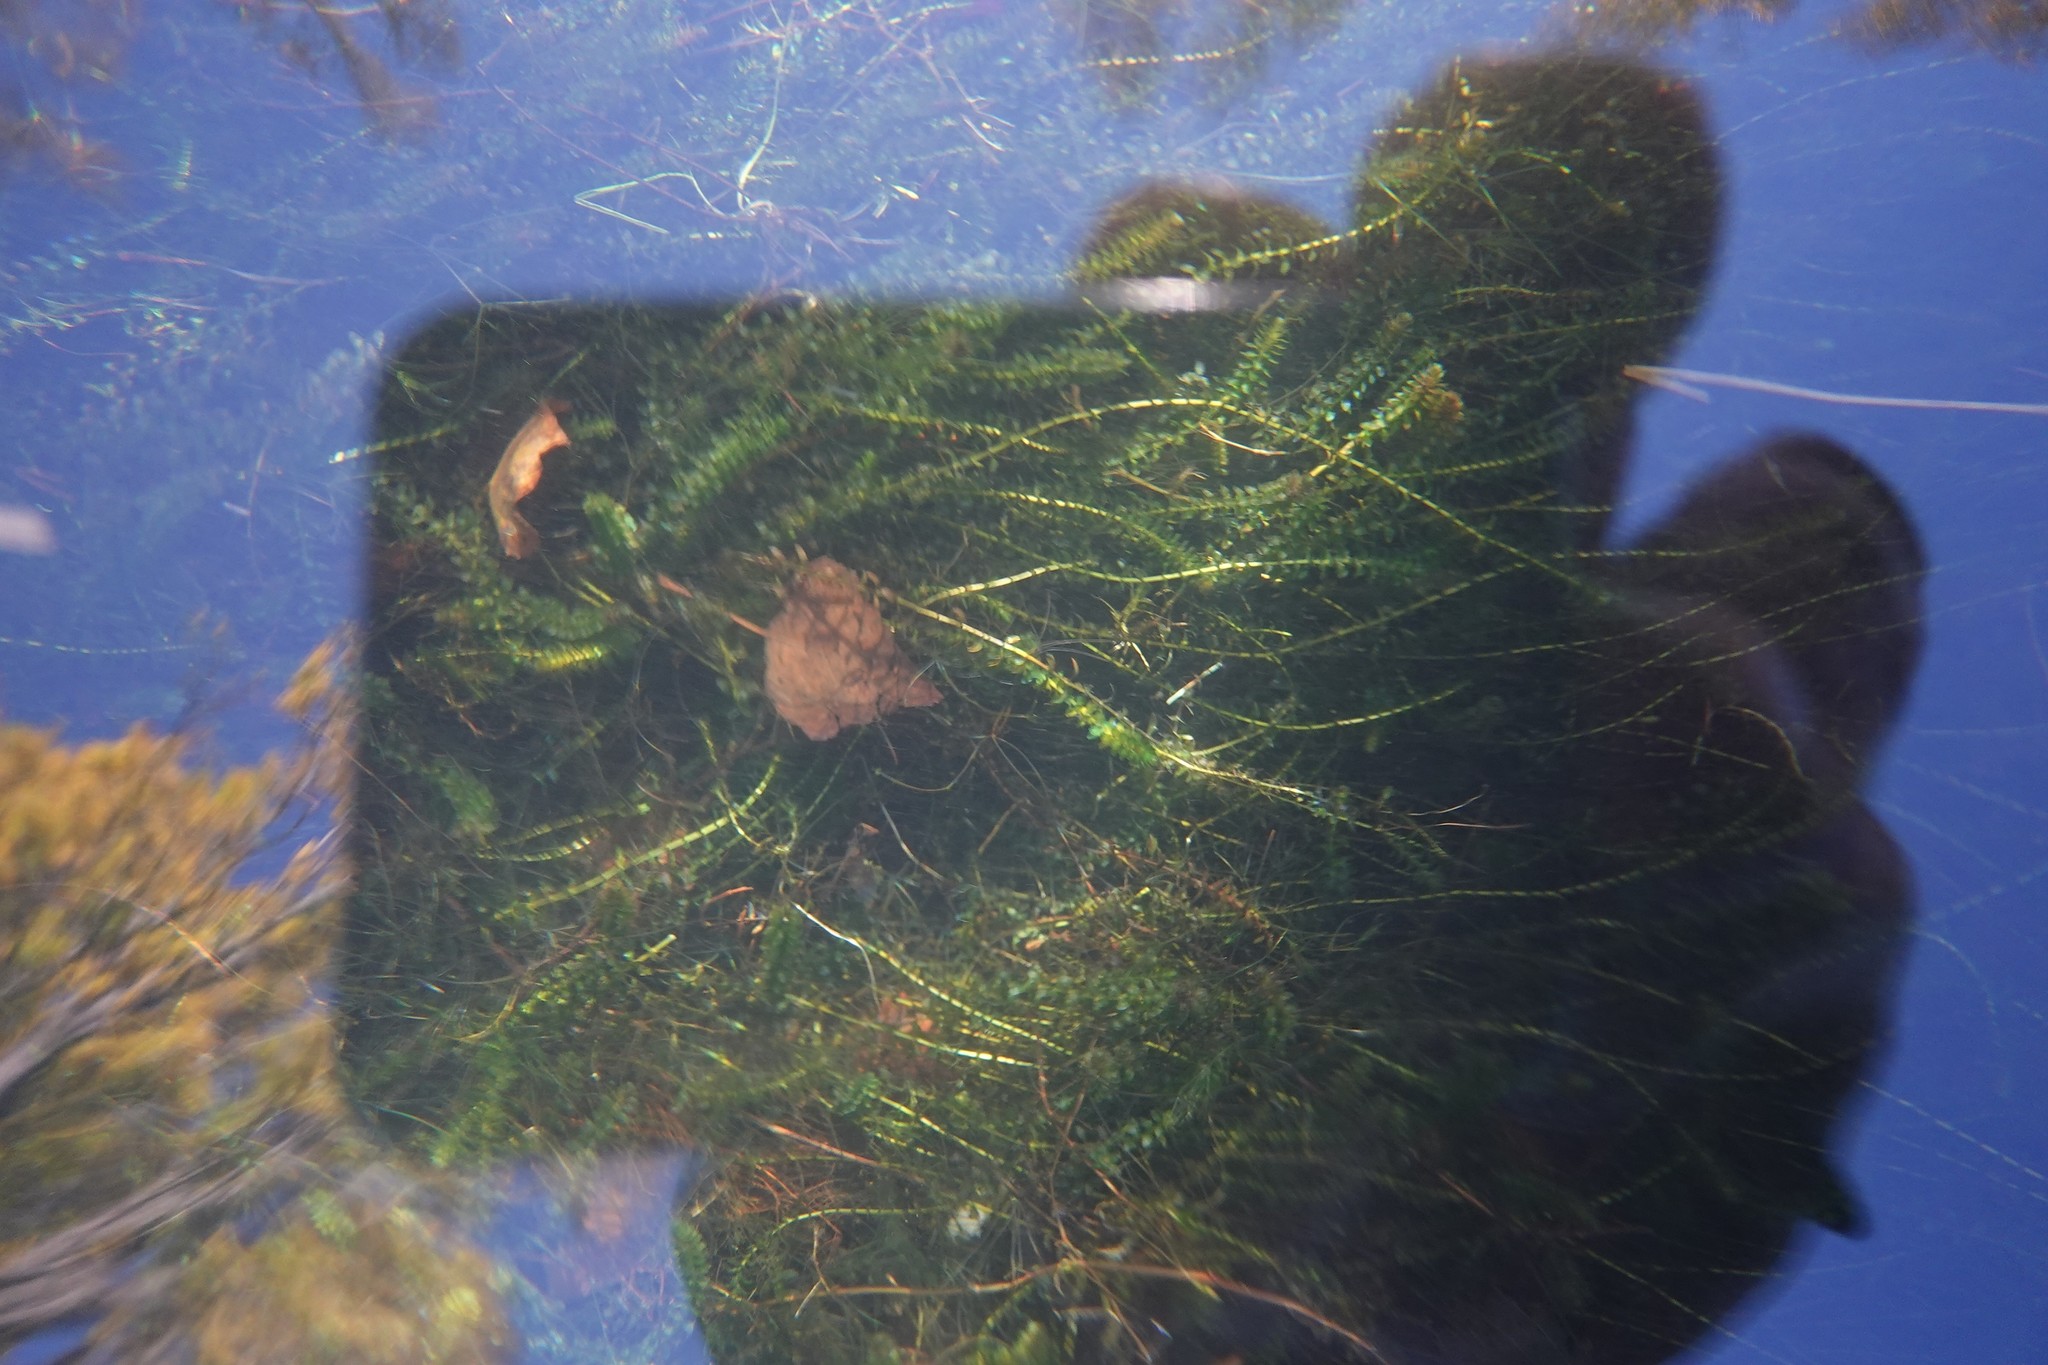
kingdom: Plantae
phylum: Tracheophyta
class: Liliopsida
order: Alismatales
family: Hydrocharitaceae
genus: Elodea
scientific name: Elodea canadensis
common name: Canadian waterweed
